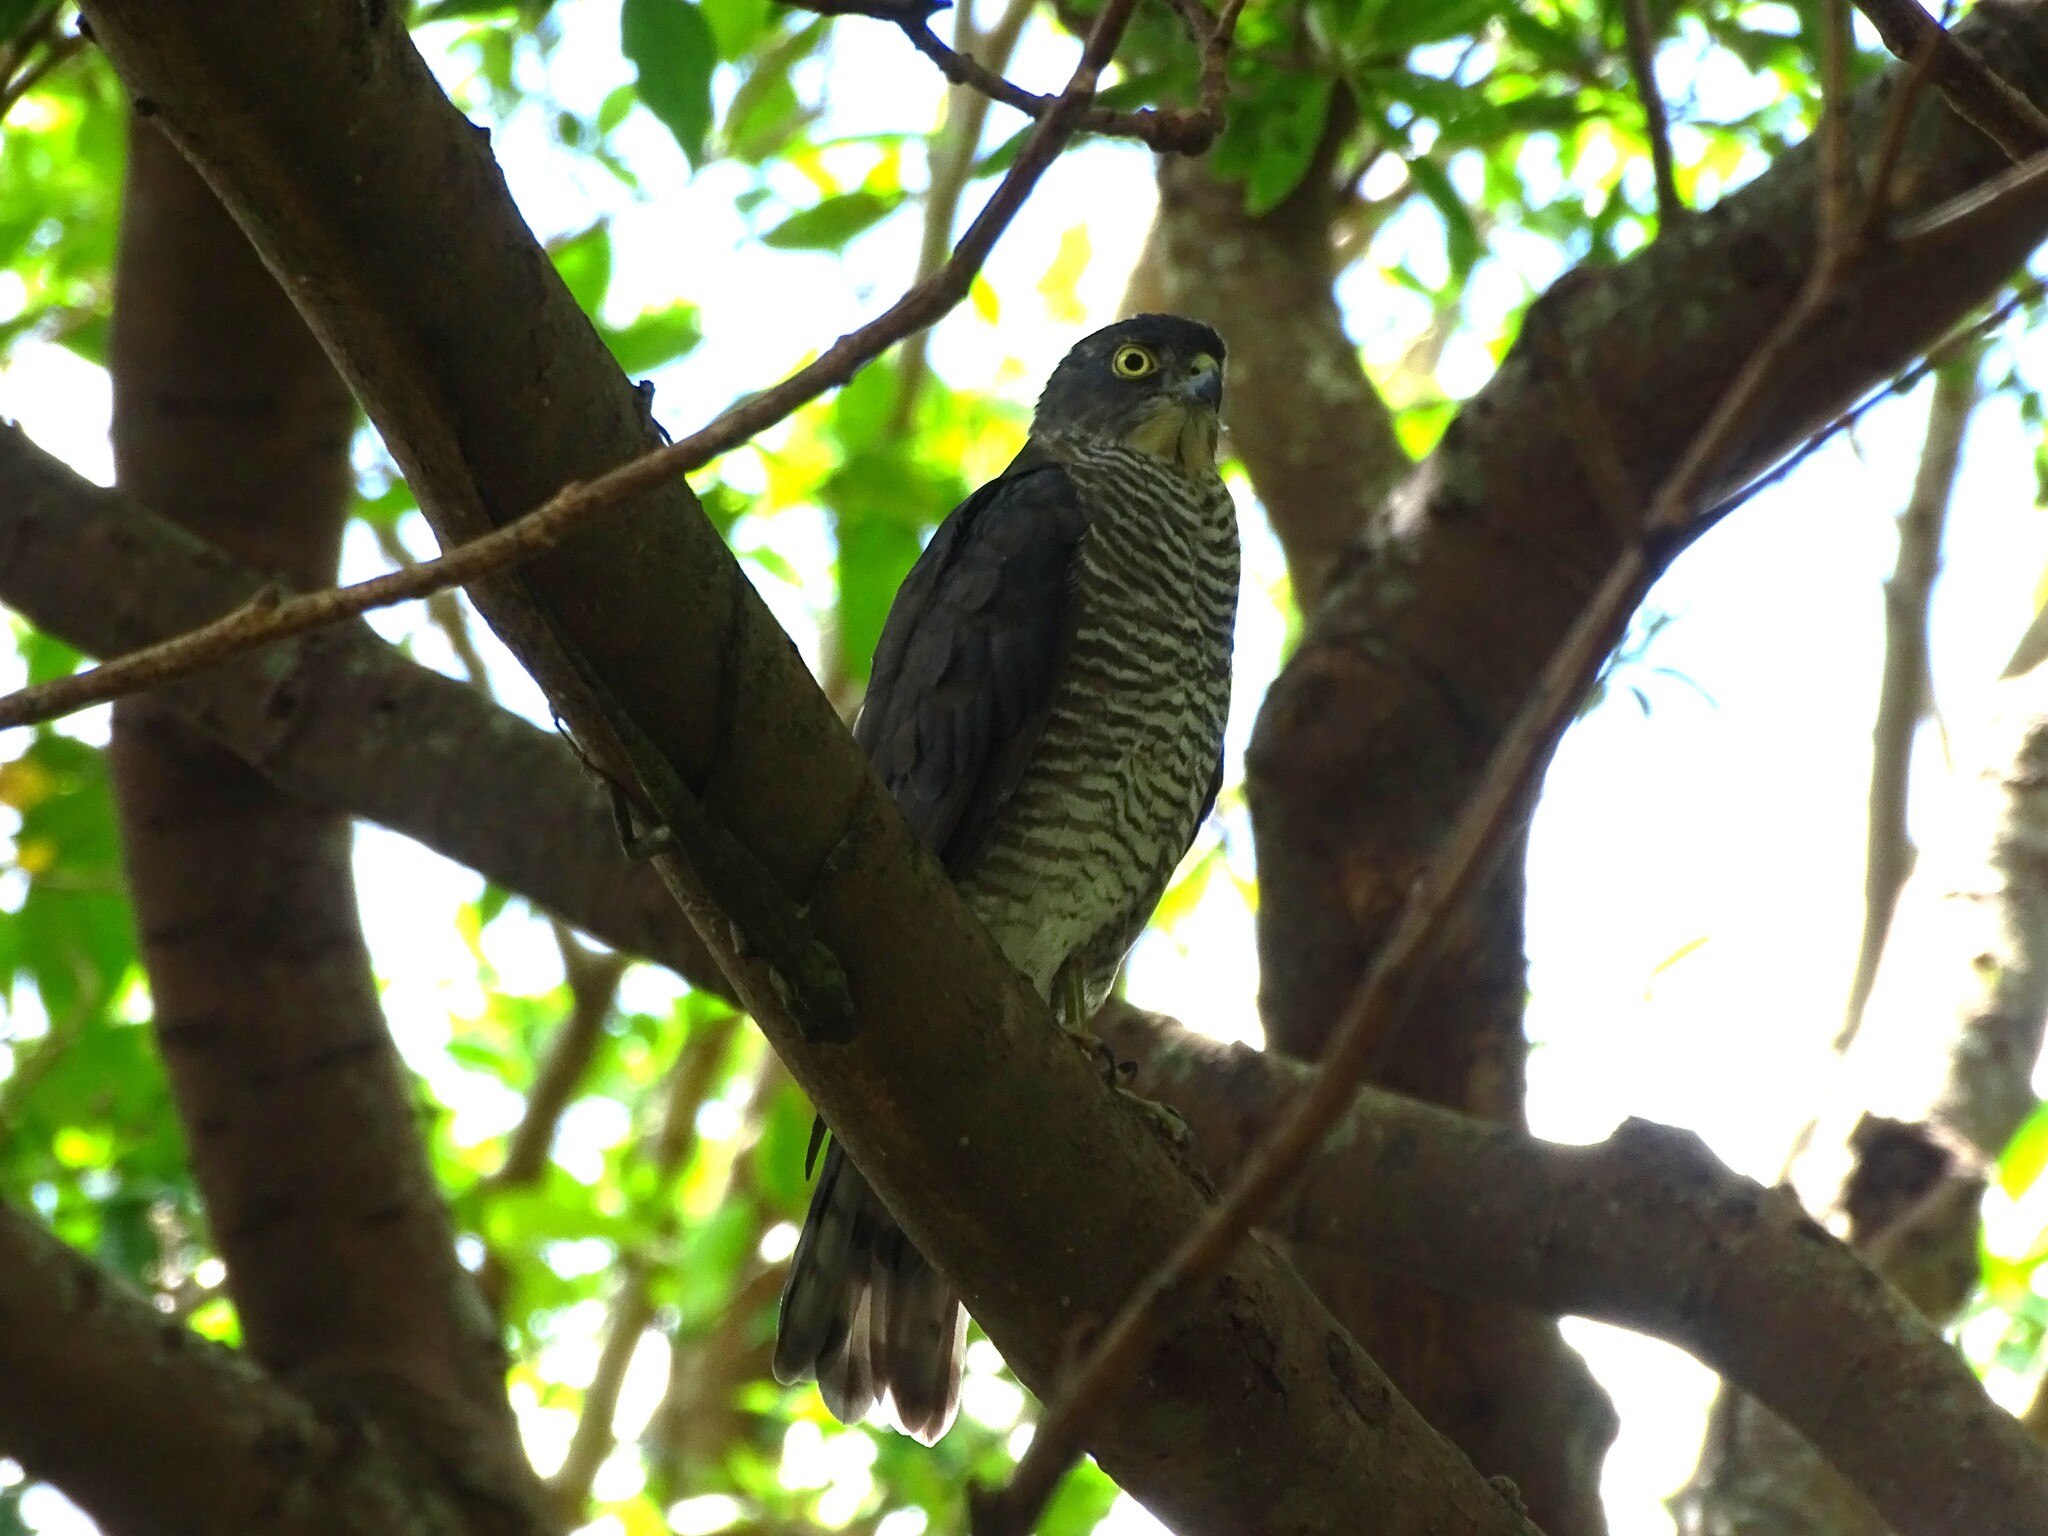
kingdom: Animalia
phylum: Chordata
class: Aves
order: Accipitriformes
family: Accipitridae
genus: Accipiter
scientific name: Accipiter gularis
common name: Japanese sparrowhawk
